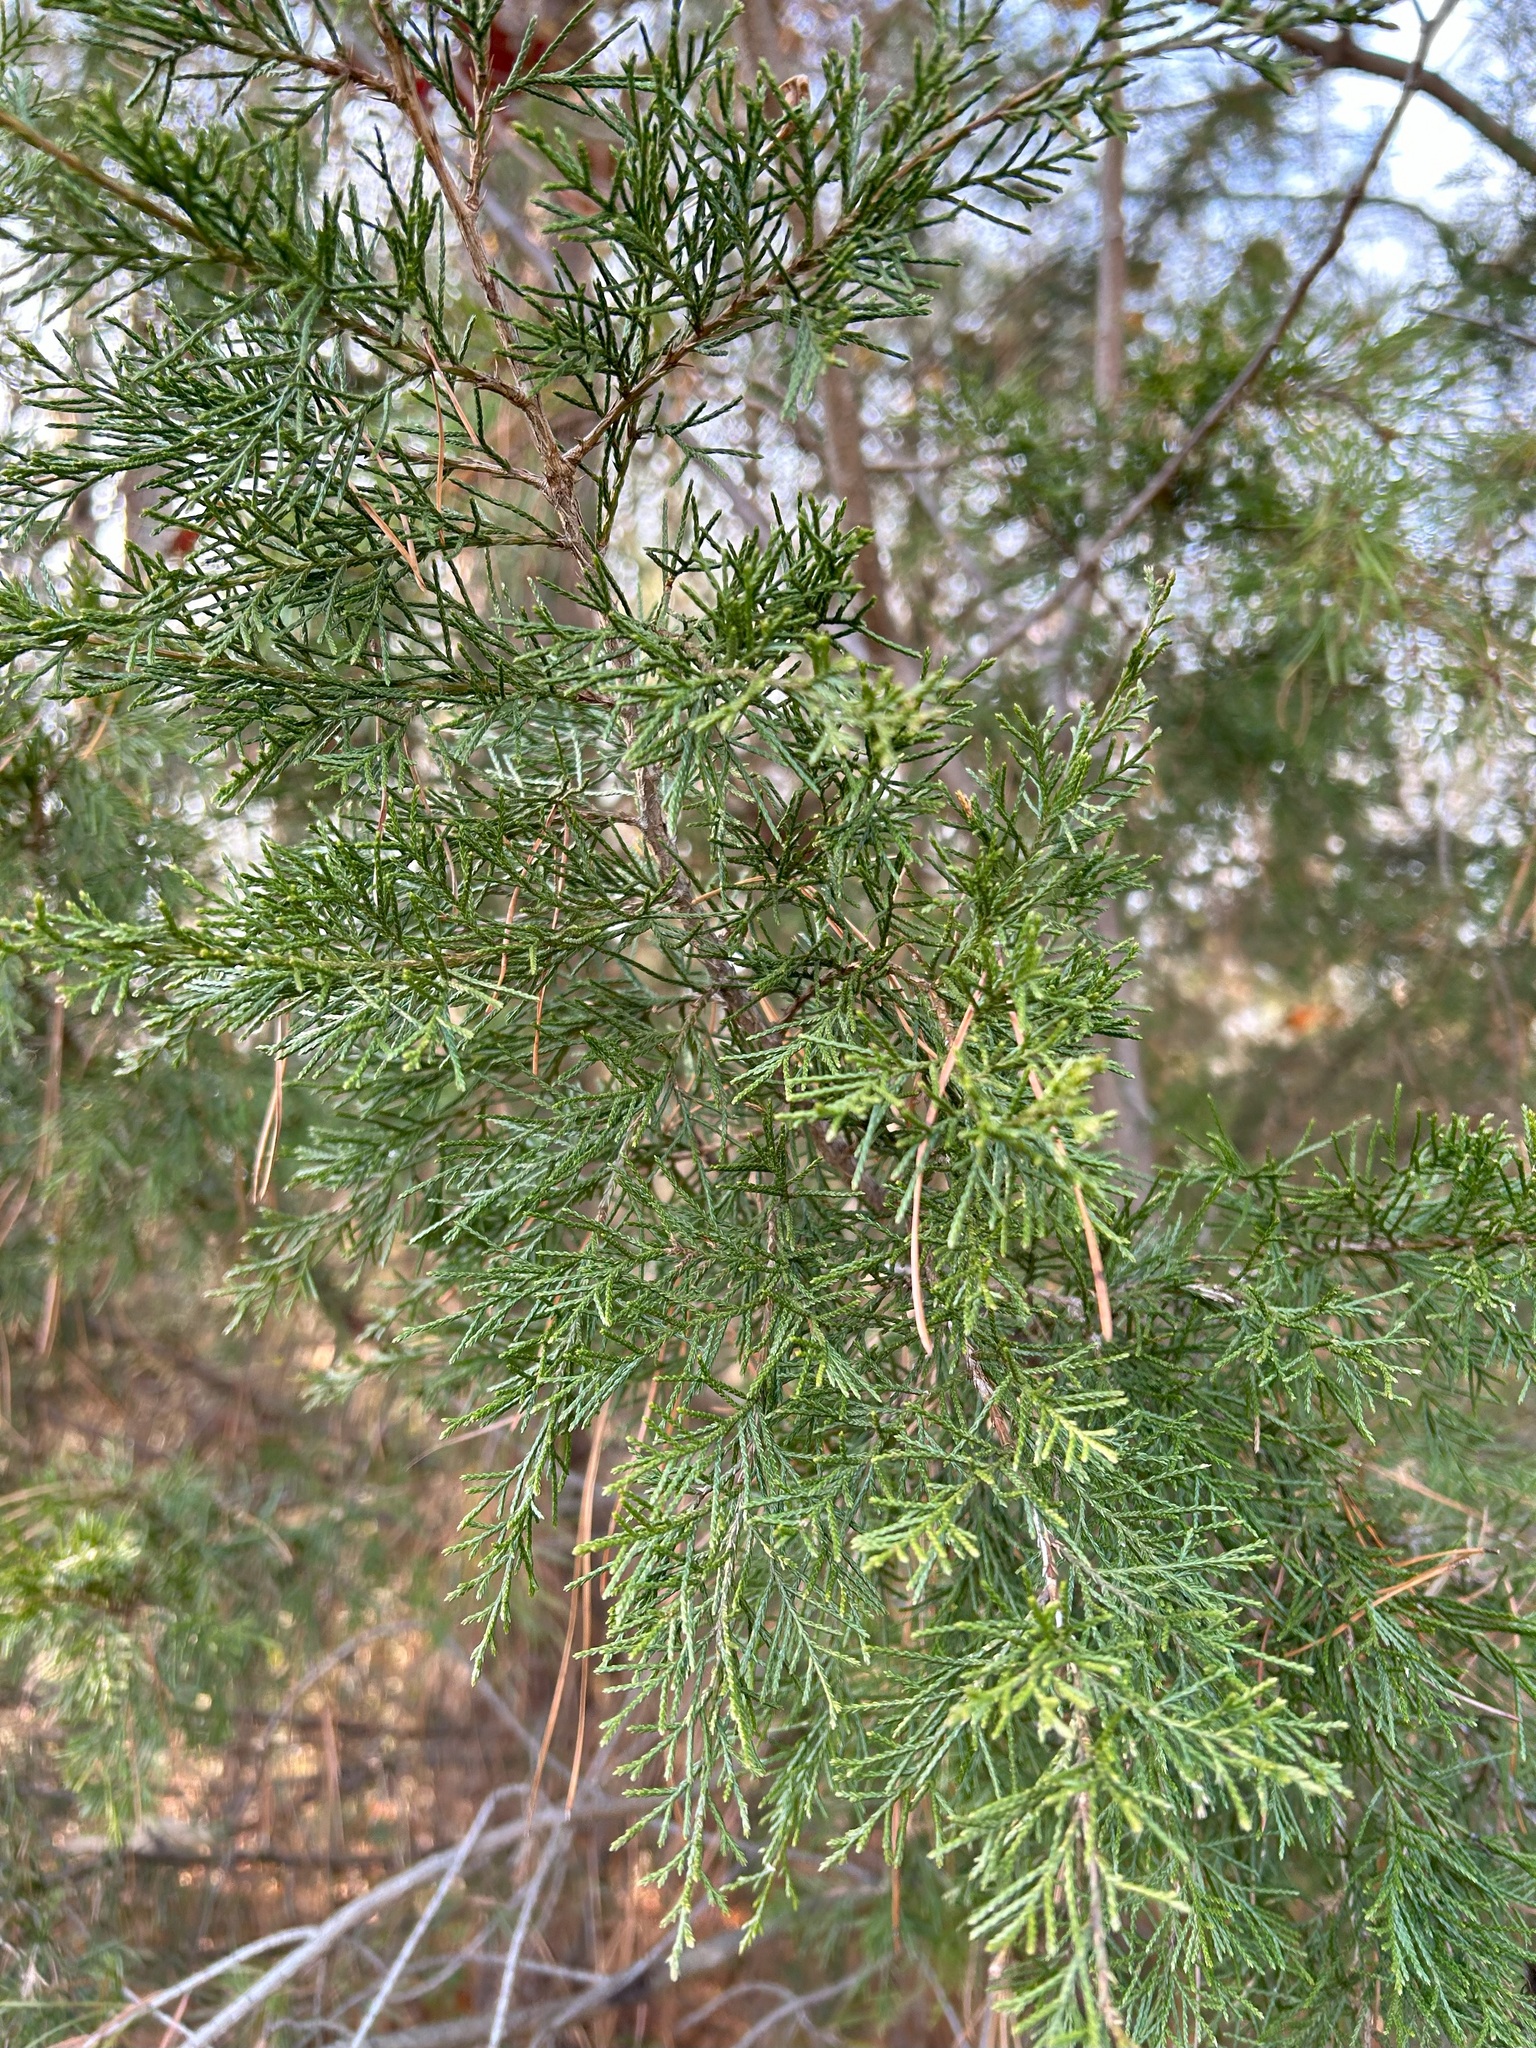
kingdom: Plantae
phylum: Tracheophyta
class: Pinopsida
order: Pinales
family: Cupressaceae
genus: Juniperus
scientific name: Juniperus virginiana
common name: Red juniper
